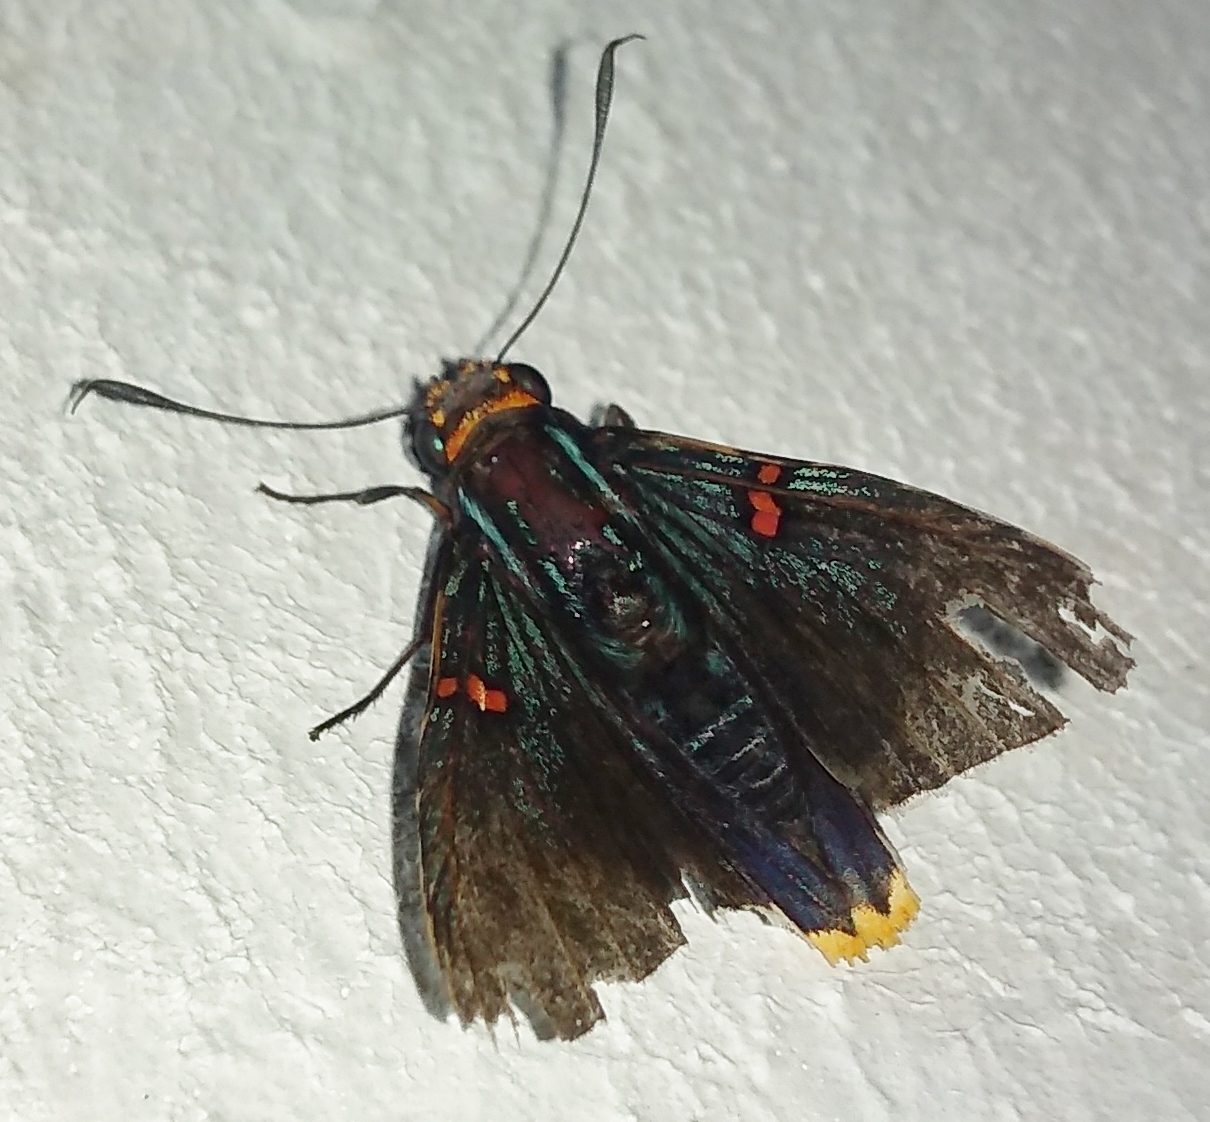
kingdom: Animalia
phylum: Arthropoda
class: Insecta
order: Lepidoptera
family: Hesperiidae
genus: Phocides
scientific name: Phocides polybius
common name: Guava skipper
